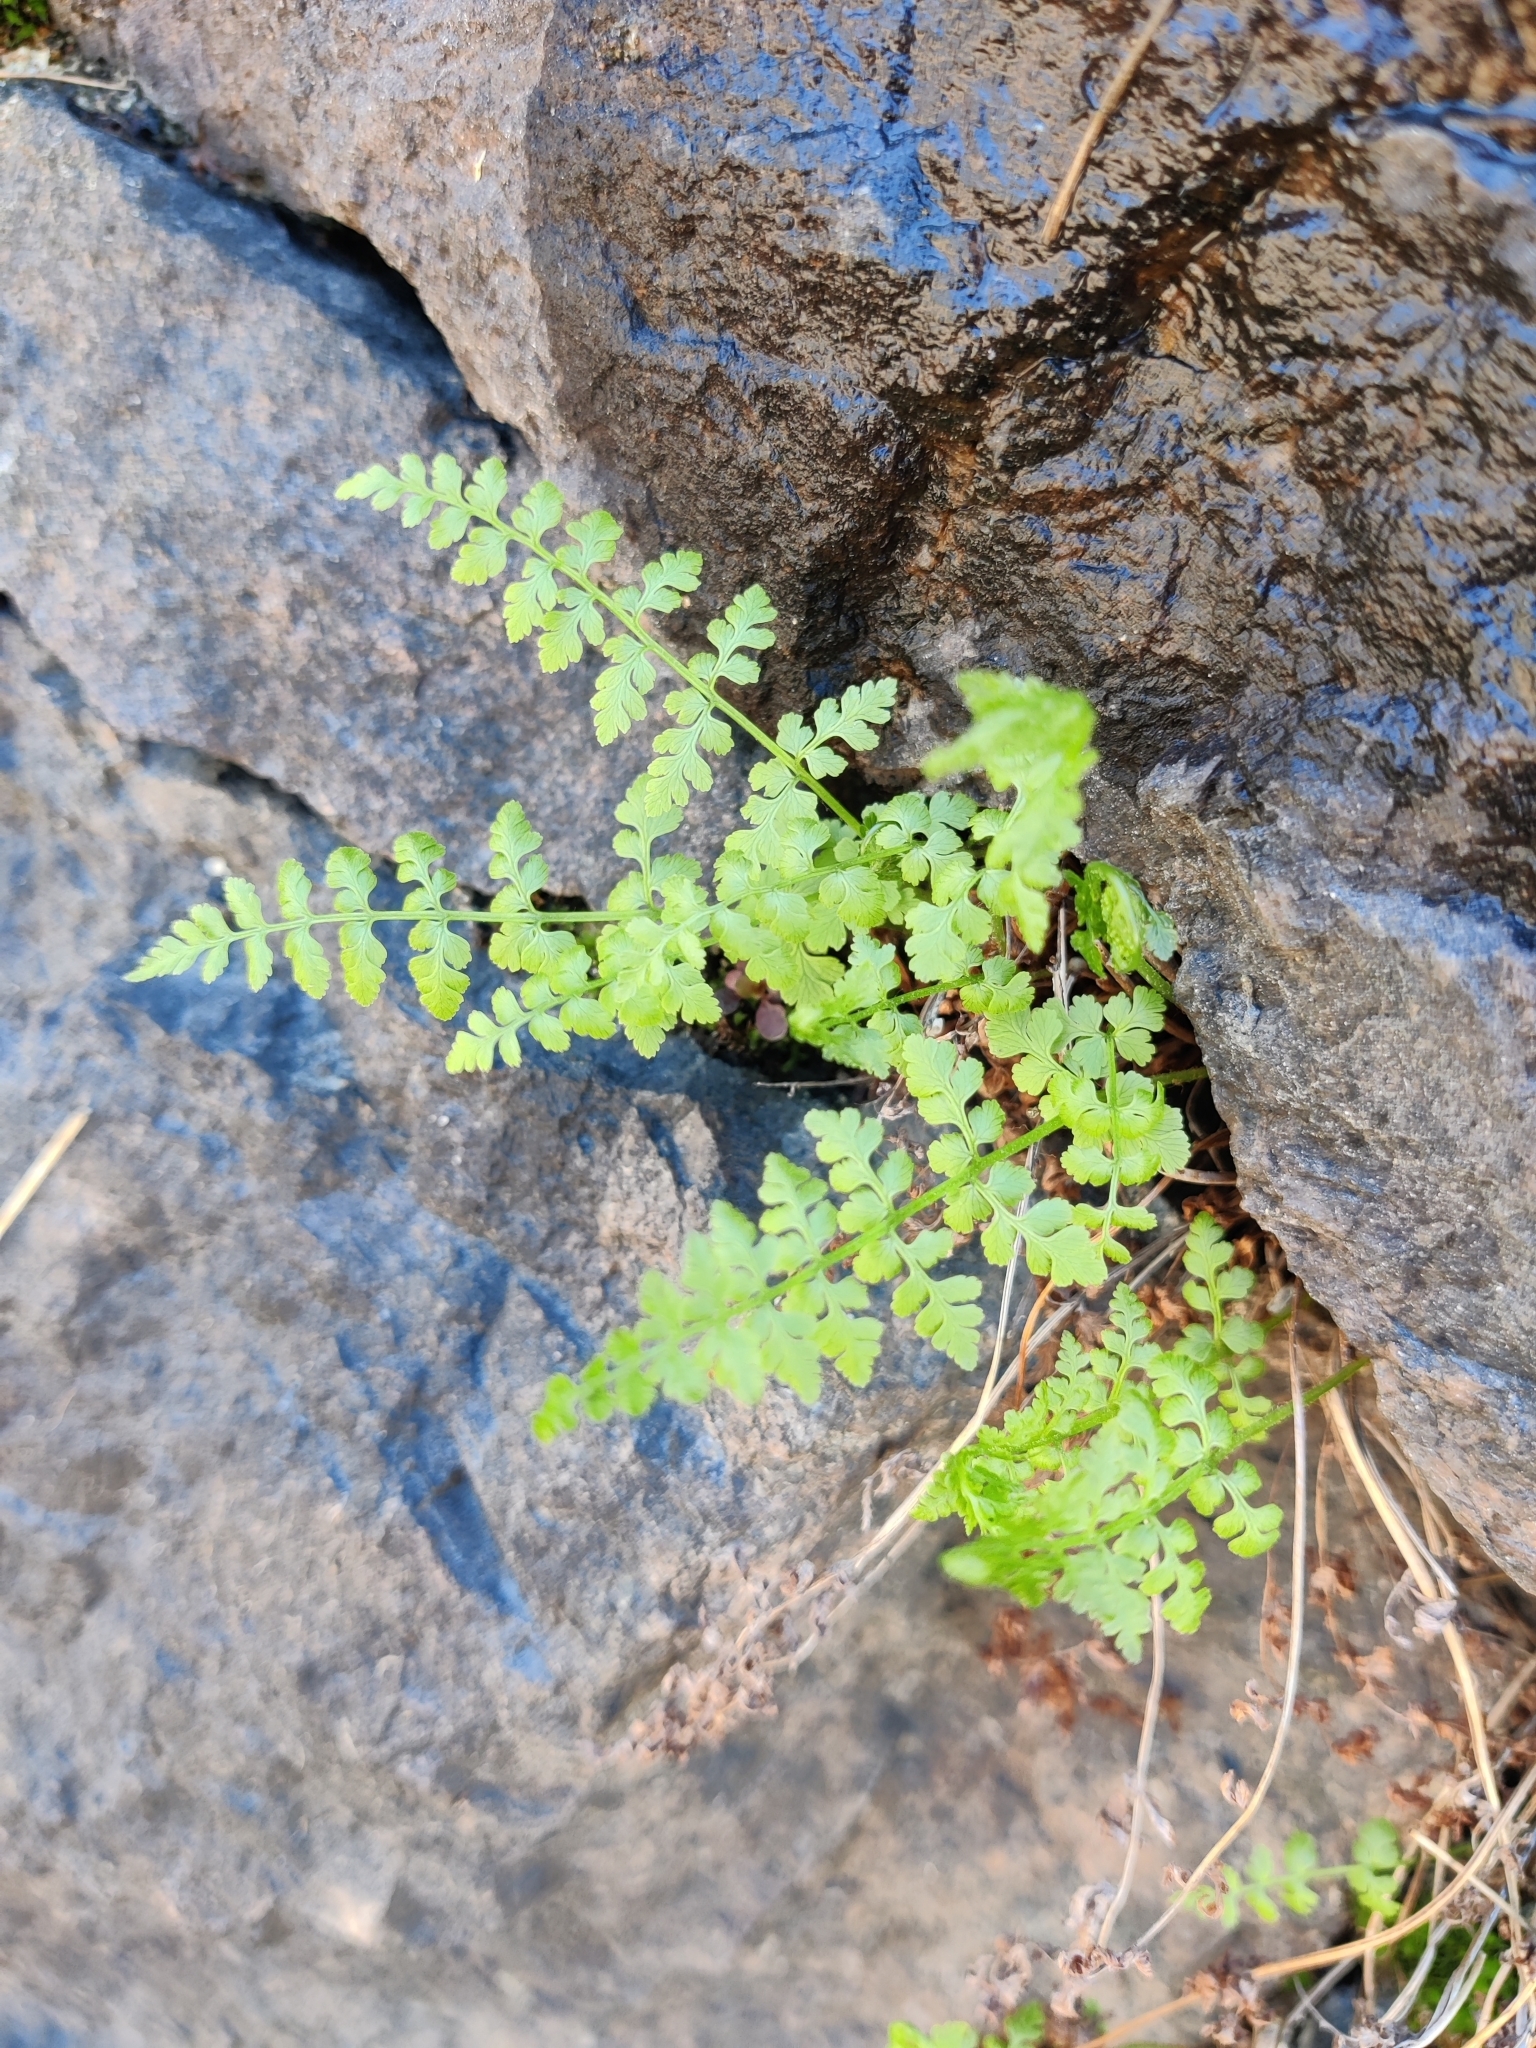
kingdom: Plantae
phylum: Tracheophyta
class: Polypodiopsida
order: Polypodiales
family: Cystopteridaceae
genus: Cystopteris
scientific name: Cystopteris fragilis
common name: Brittle bladder fern
